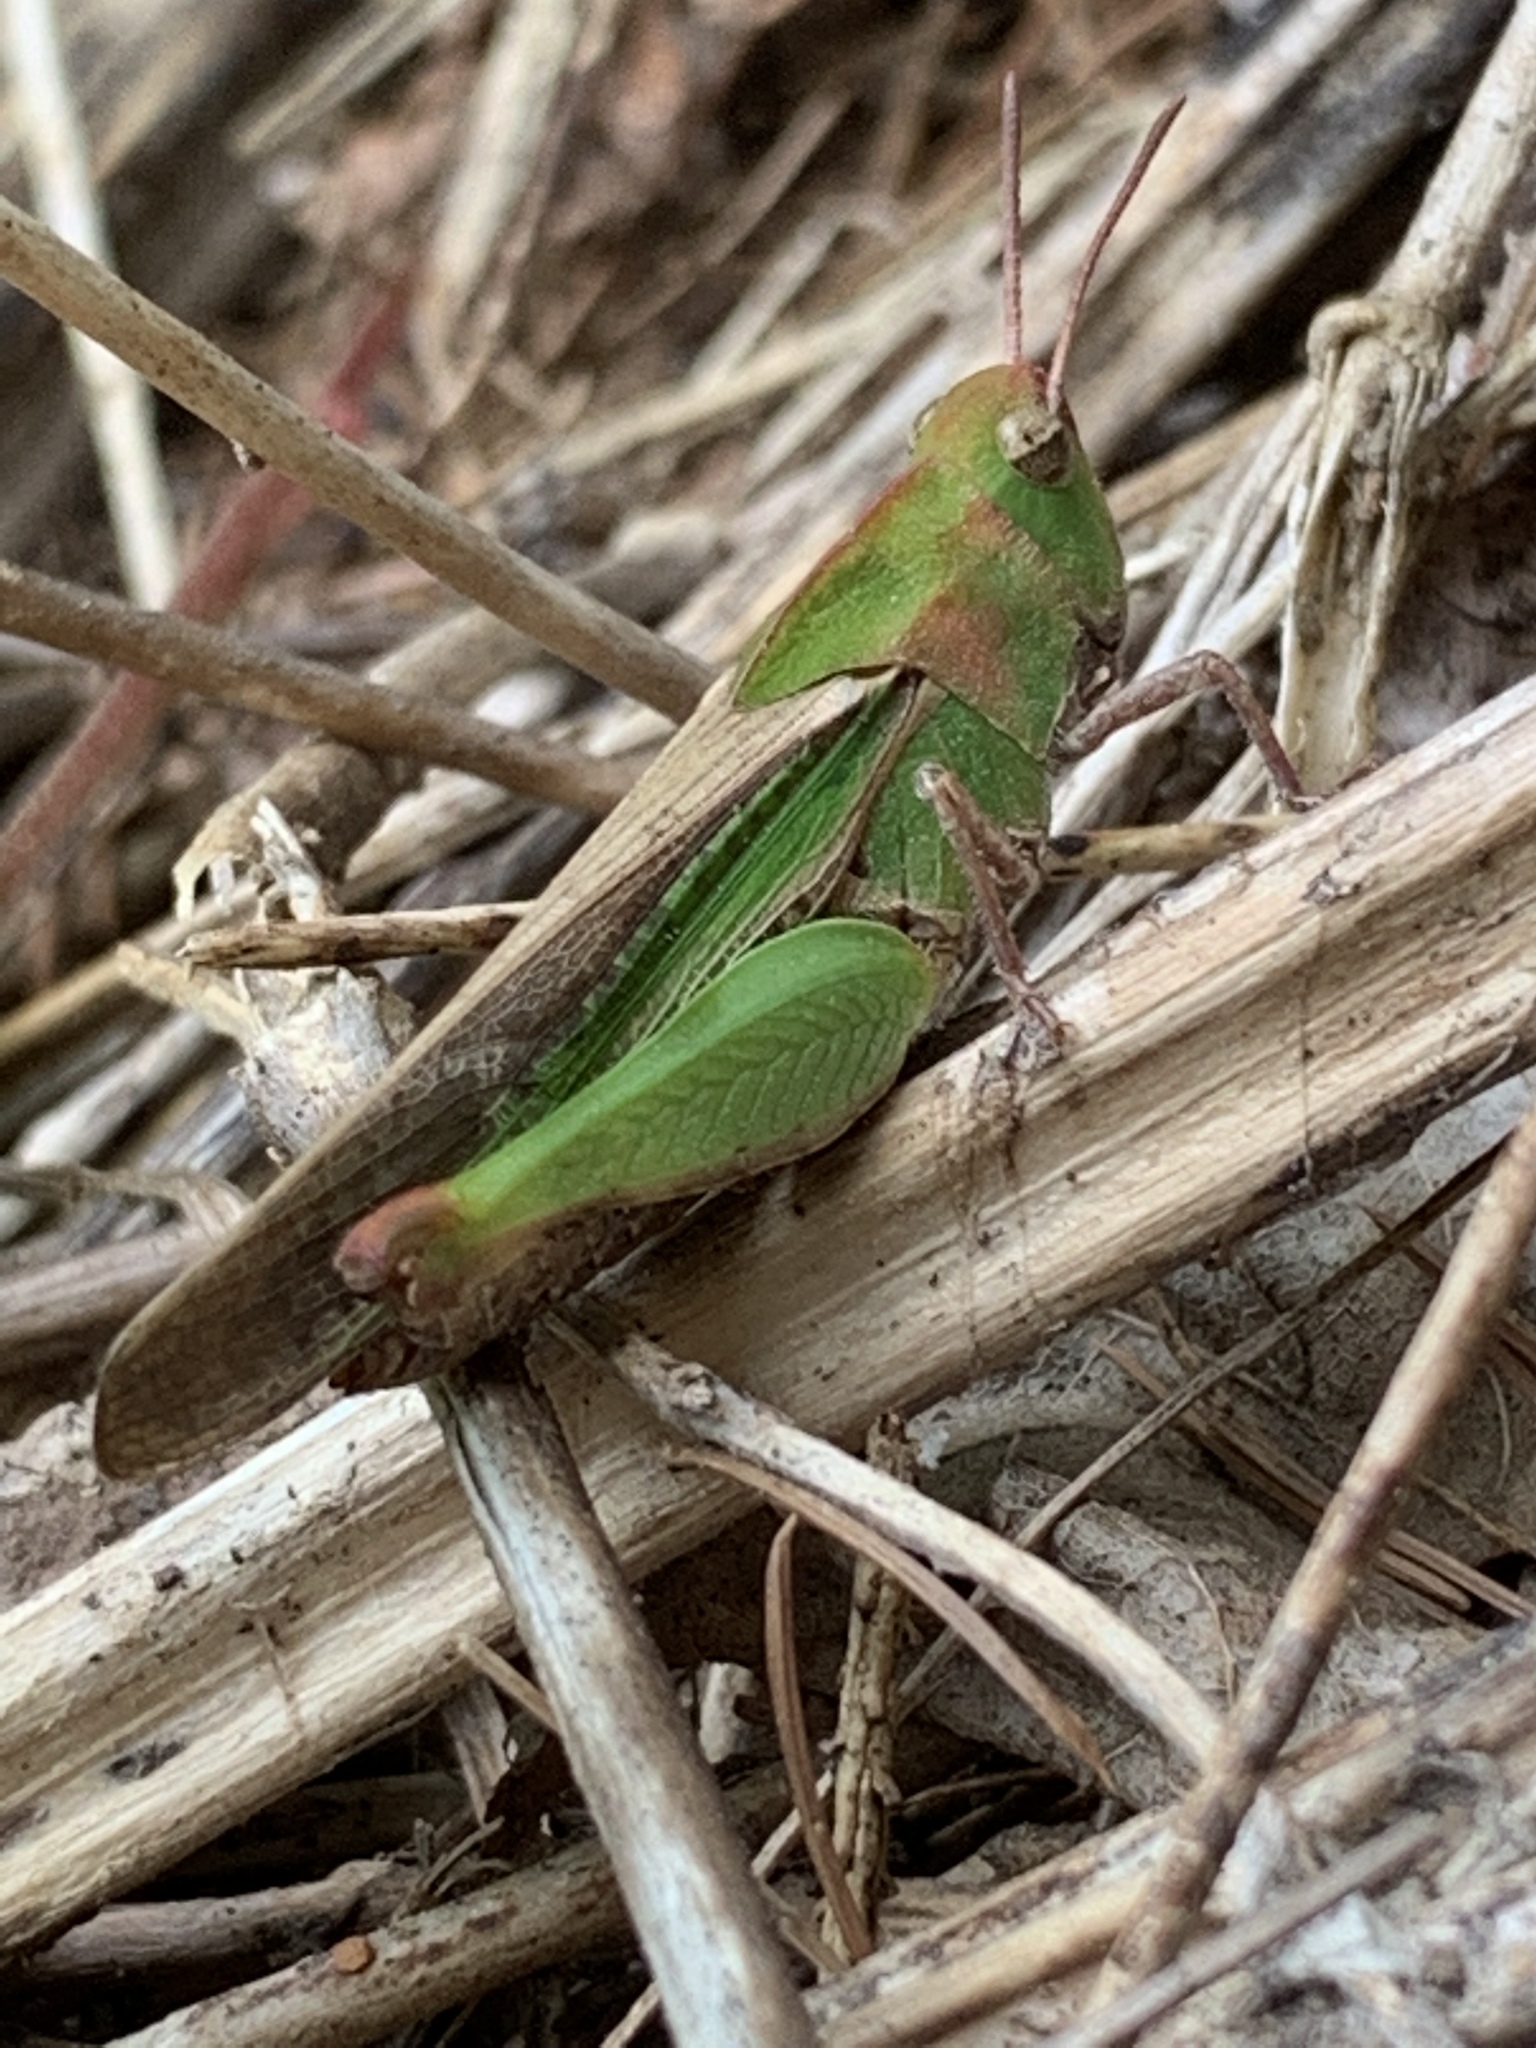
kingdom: Animalia
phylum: Arthropoda
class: Insecta
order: Orthoptera
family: Acrididae
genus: Chortophaga
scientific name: Chortophaga viridifasciata
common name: Green-striped grasshopper
